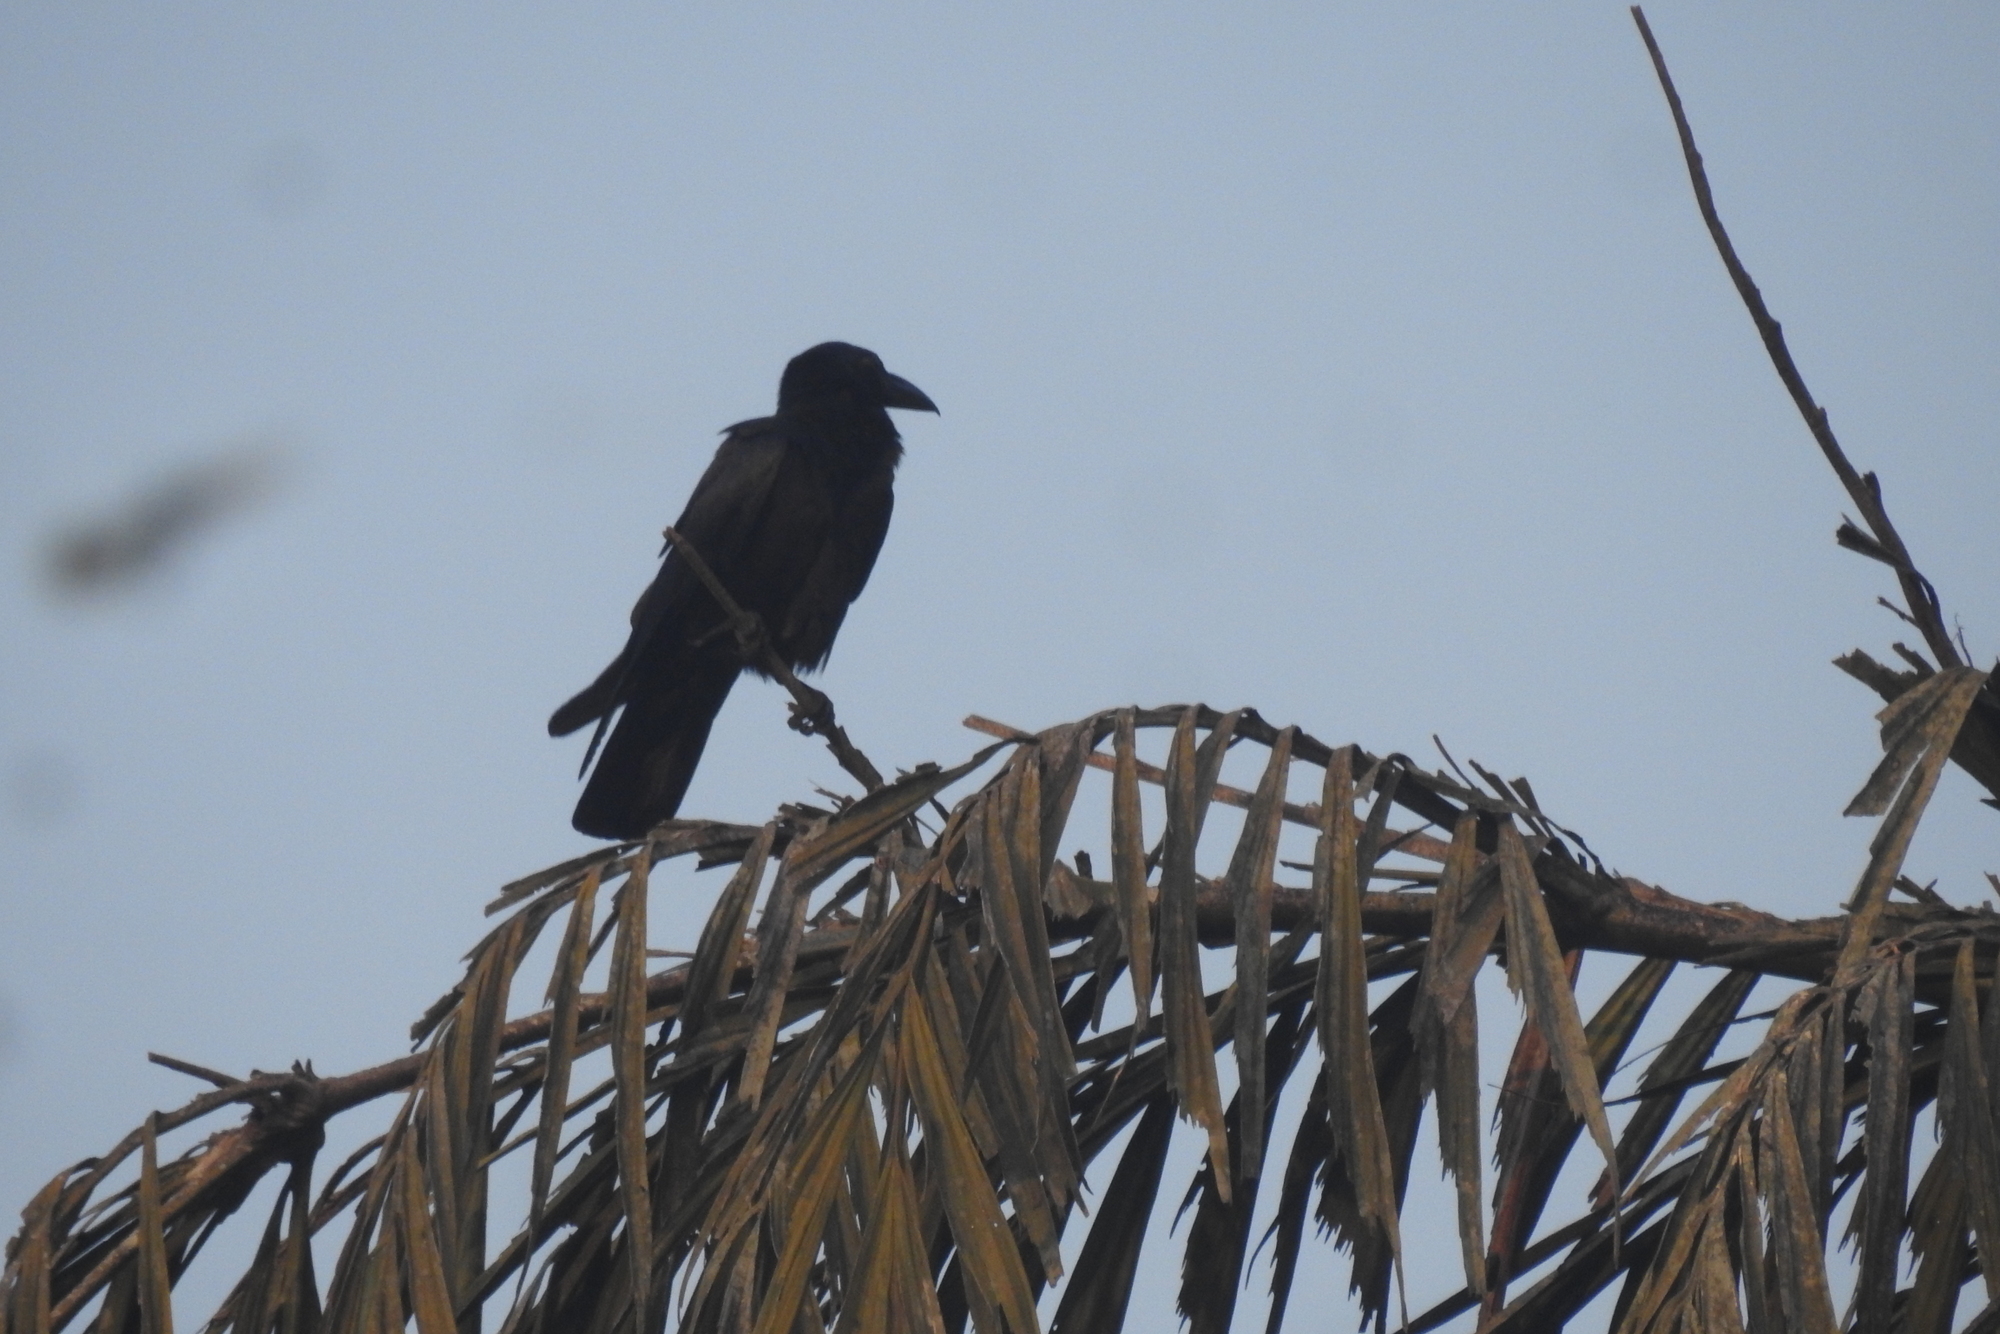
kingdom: Animalia
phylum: Chordata
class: Aves
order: Passeriformes
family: Corvidae
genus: Corvus
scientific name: Corvus macrorhynchos
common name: Large-billed crow
